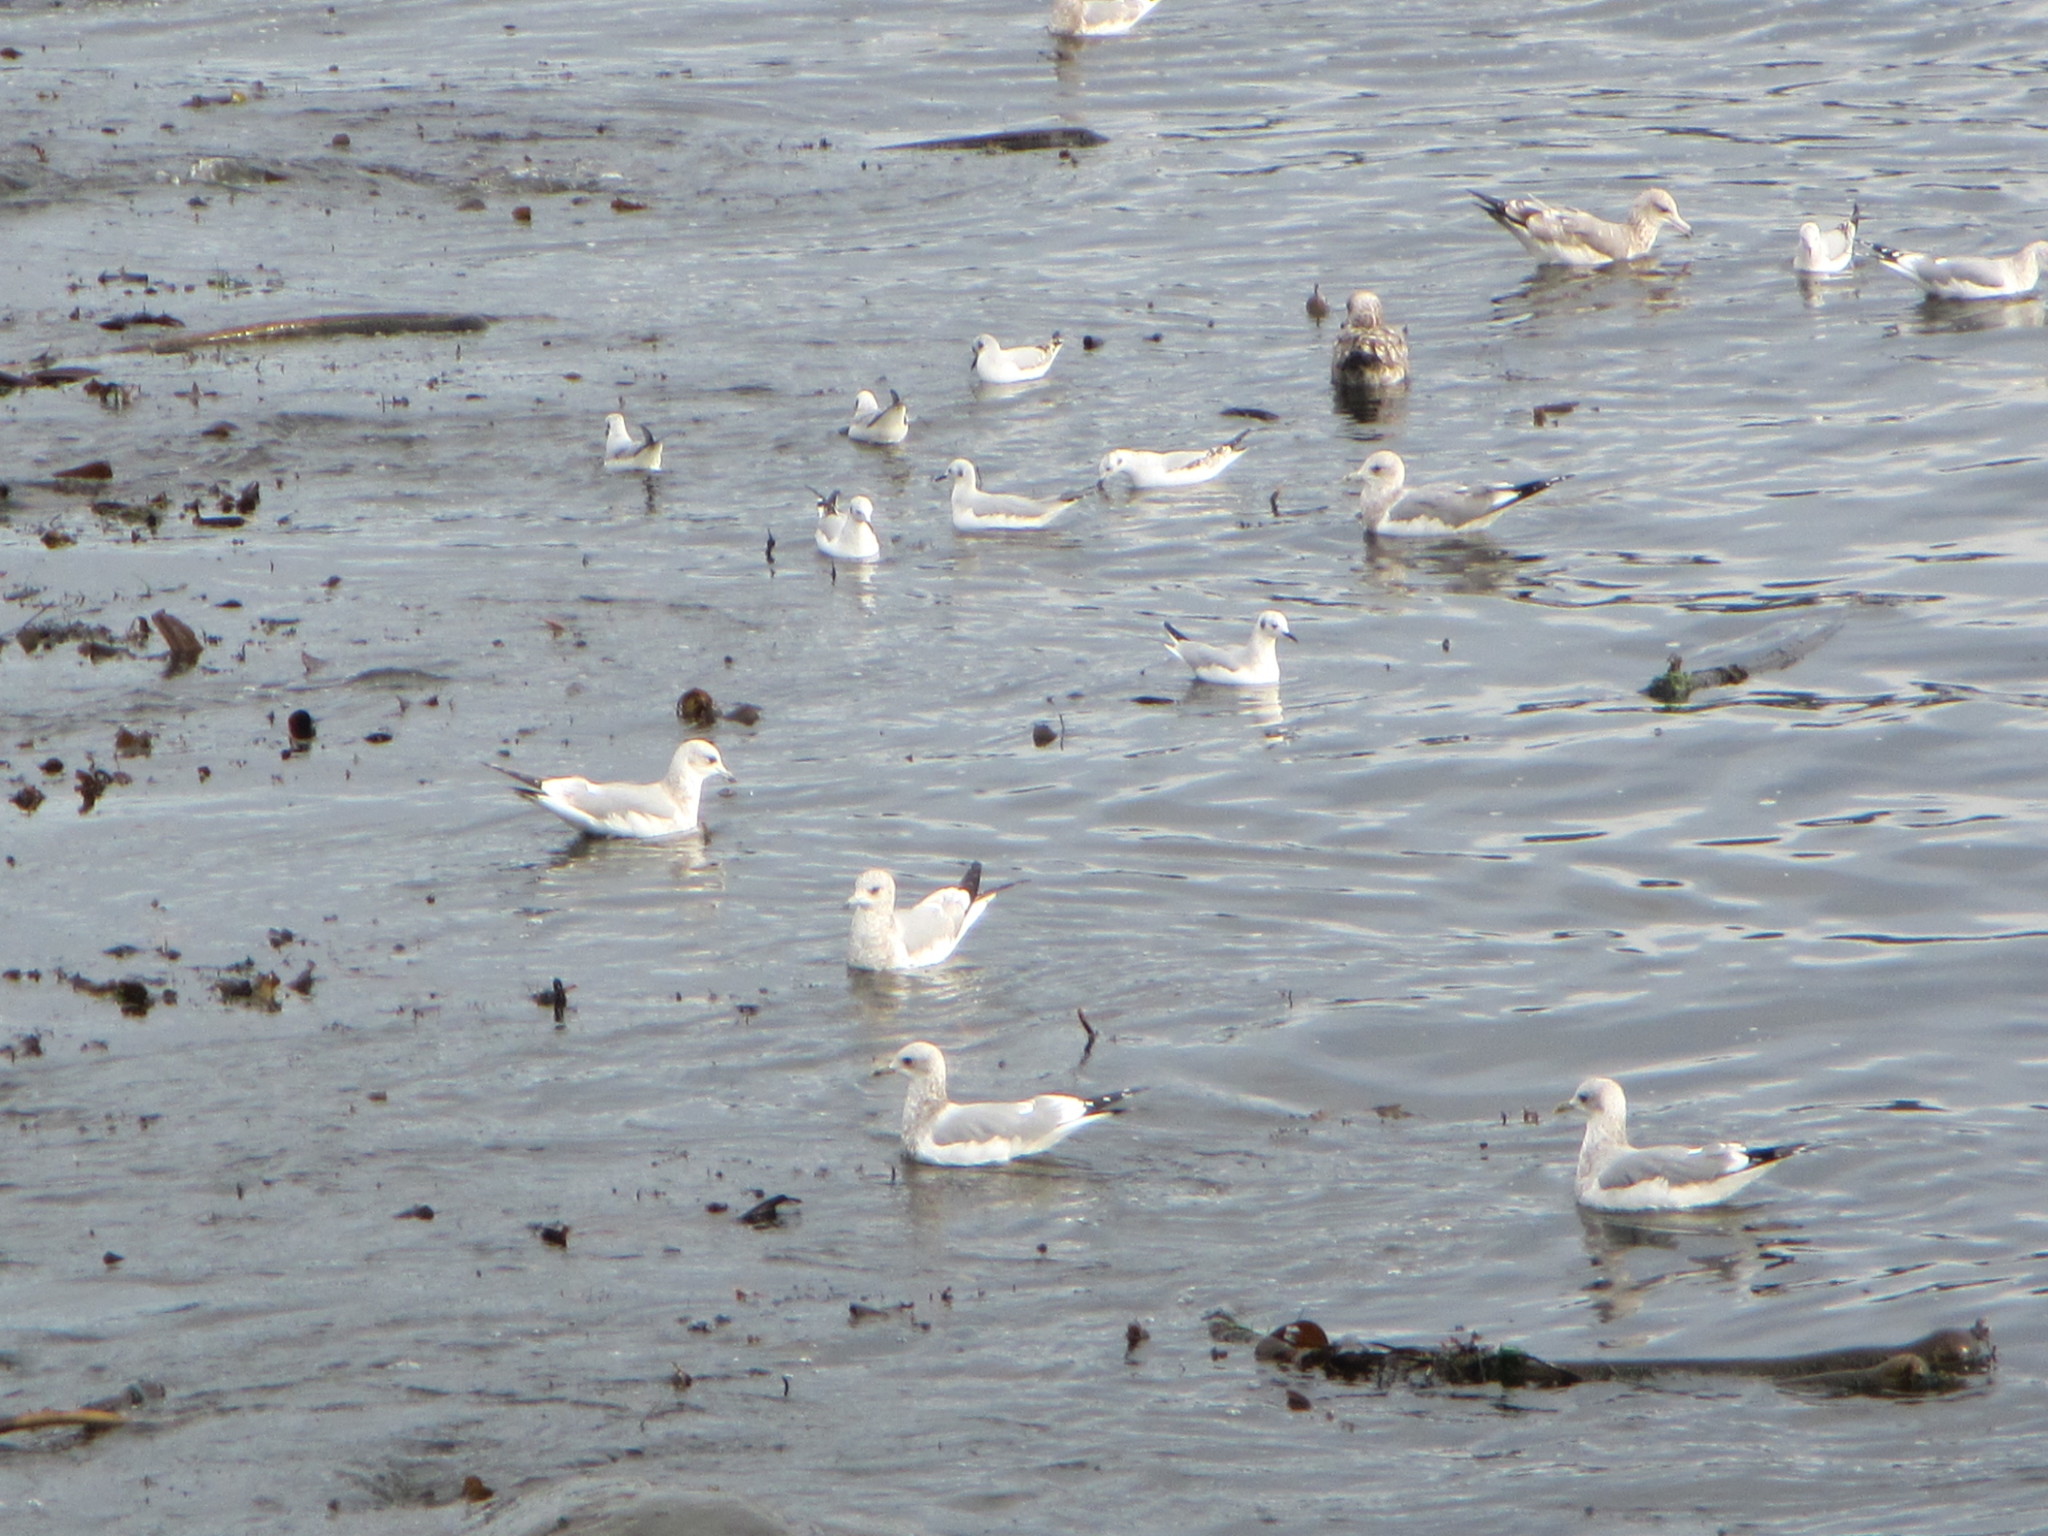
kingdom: Animalia
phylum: Chordata
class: Aves
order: Charadriiformes
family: Laridae
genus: Chroicocephalus
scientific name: Chroicocephalus philadelphia
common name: Bonaparte's gull
